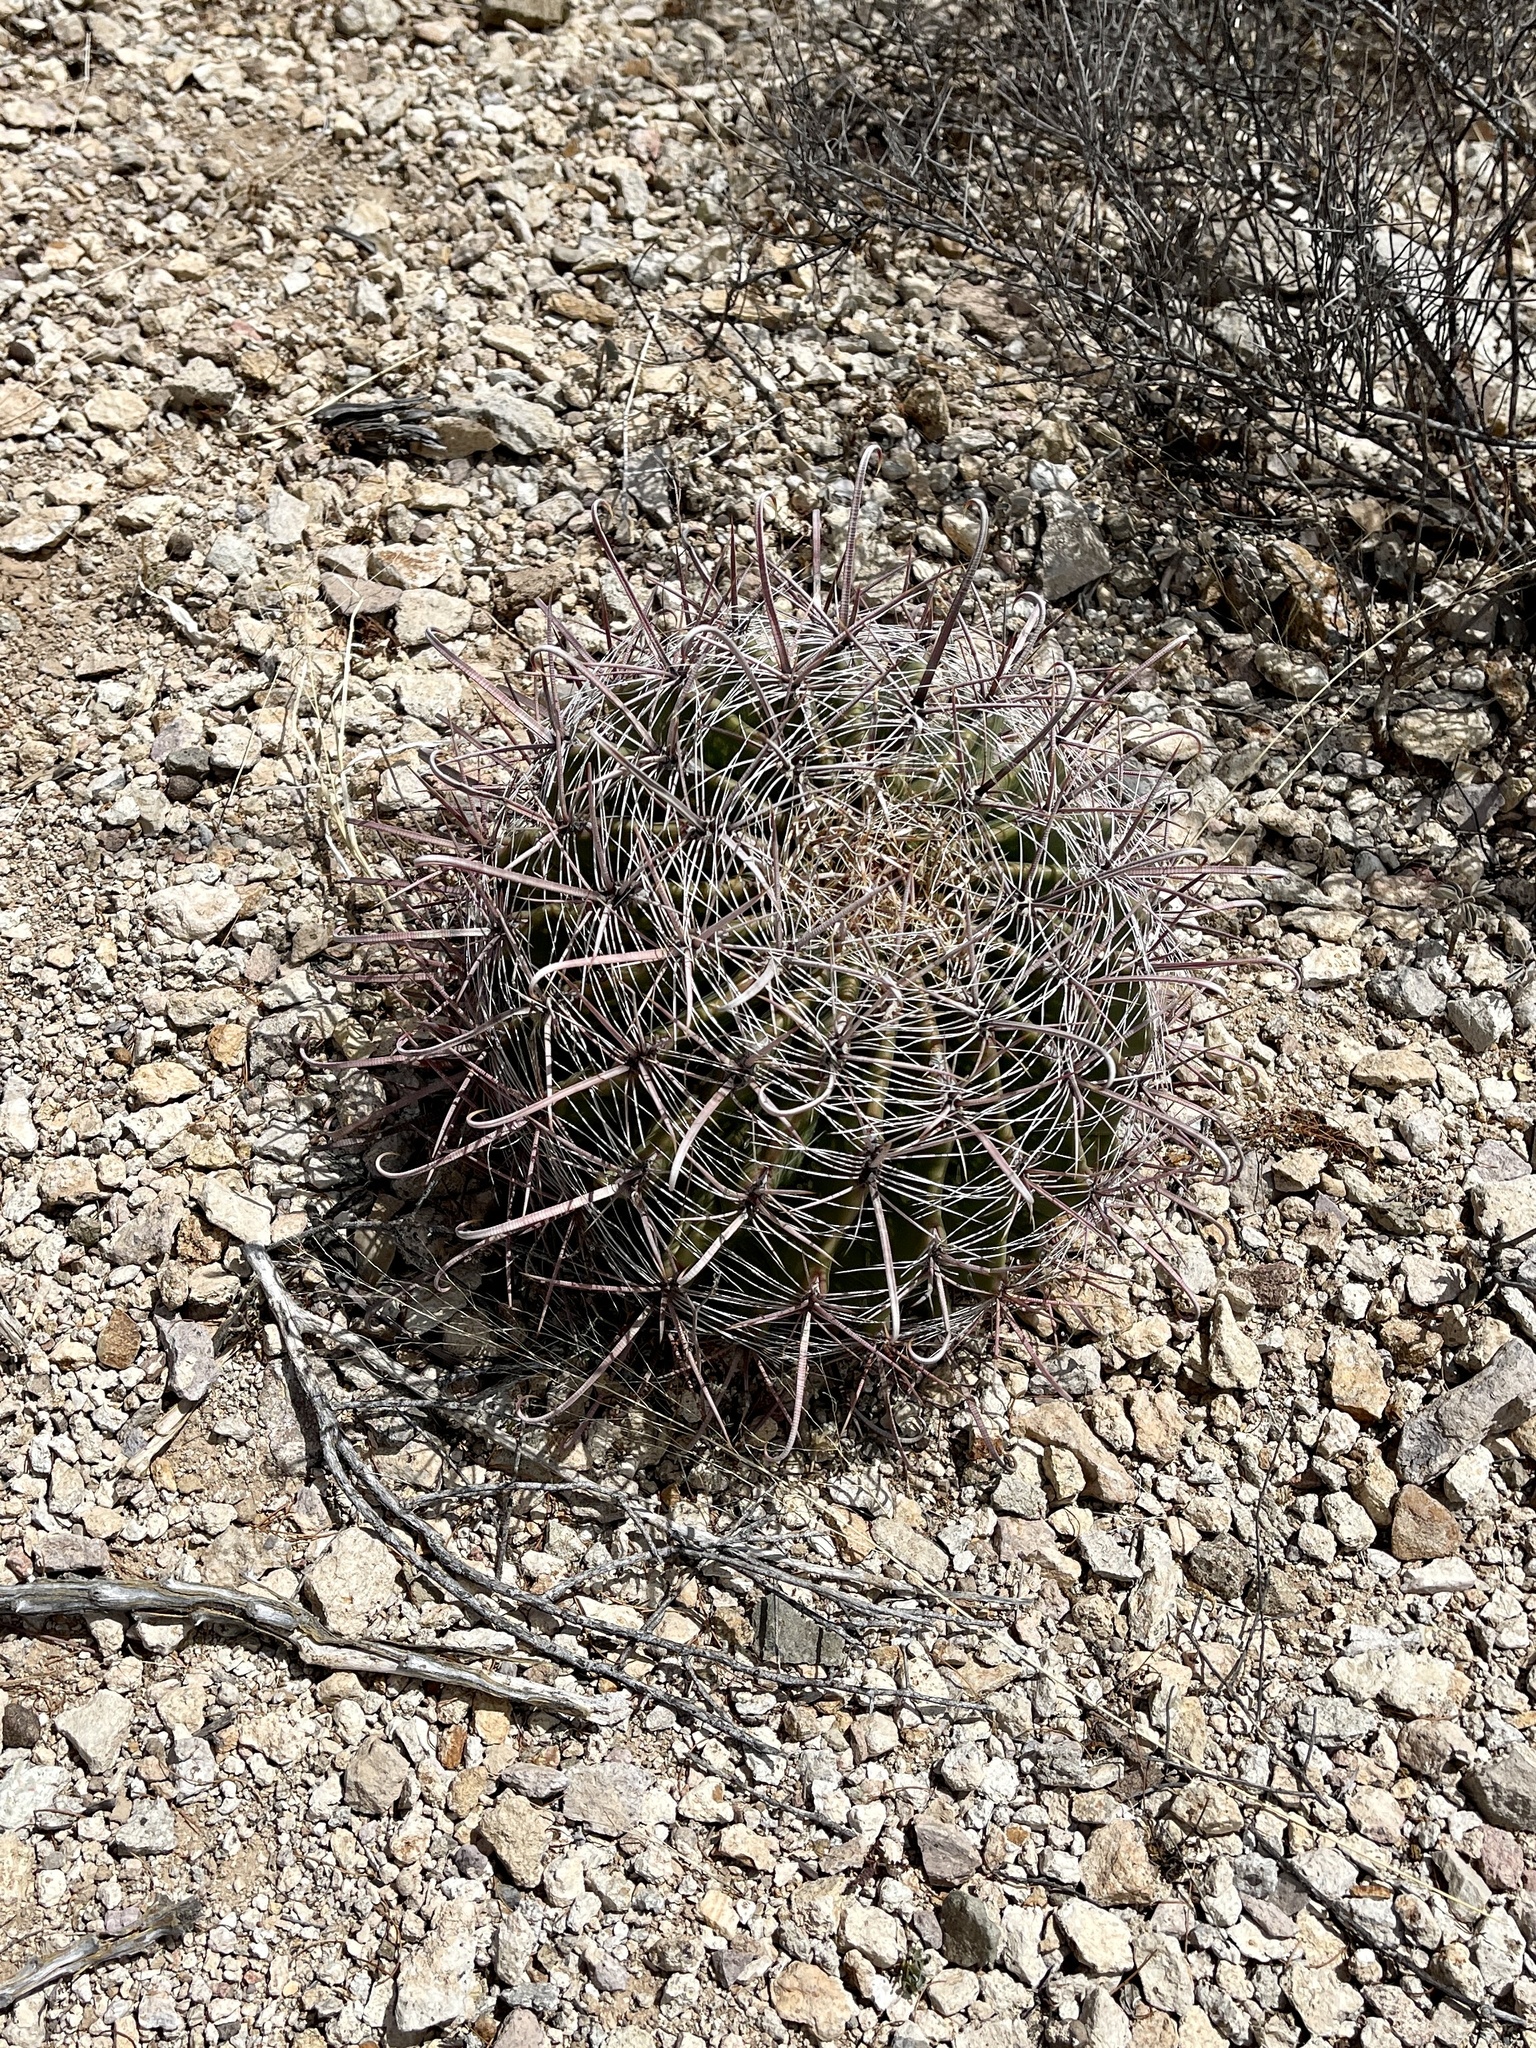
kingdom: Plantae
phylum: Tracheophyta
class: Magnoliopsida
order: Caryophyllales
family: Cactaceae
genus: Ferocactus
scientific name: Ferocactus wislizeni
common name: Candy barrel cactus
